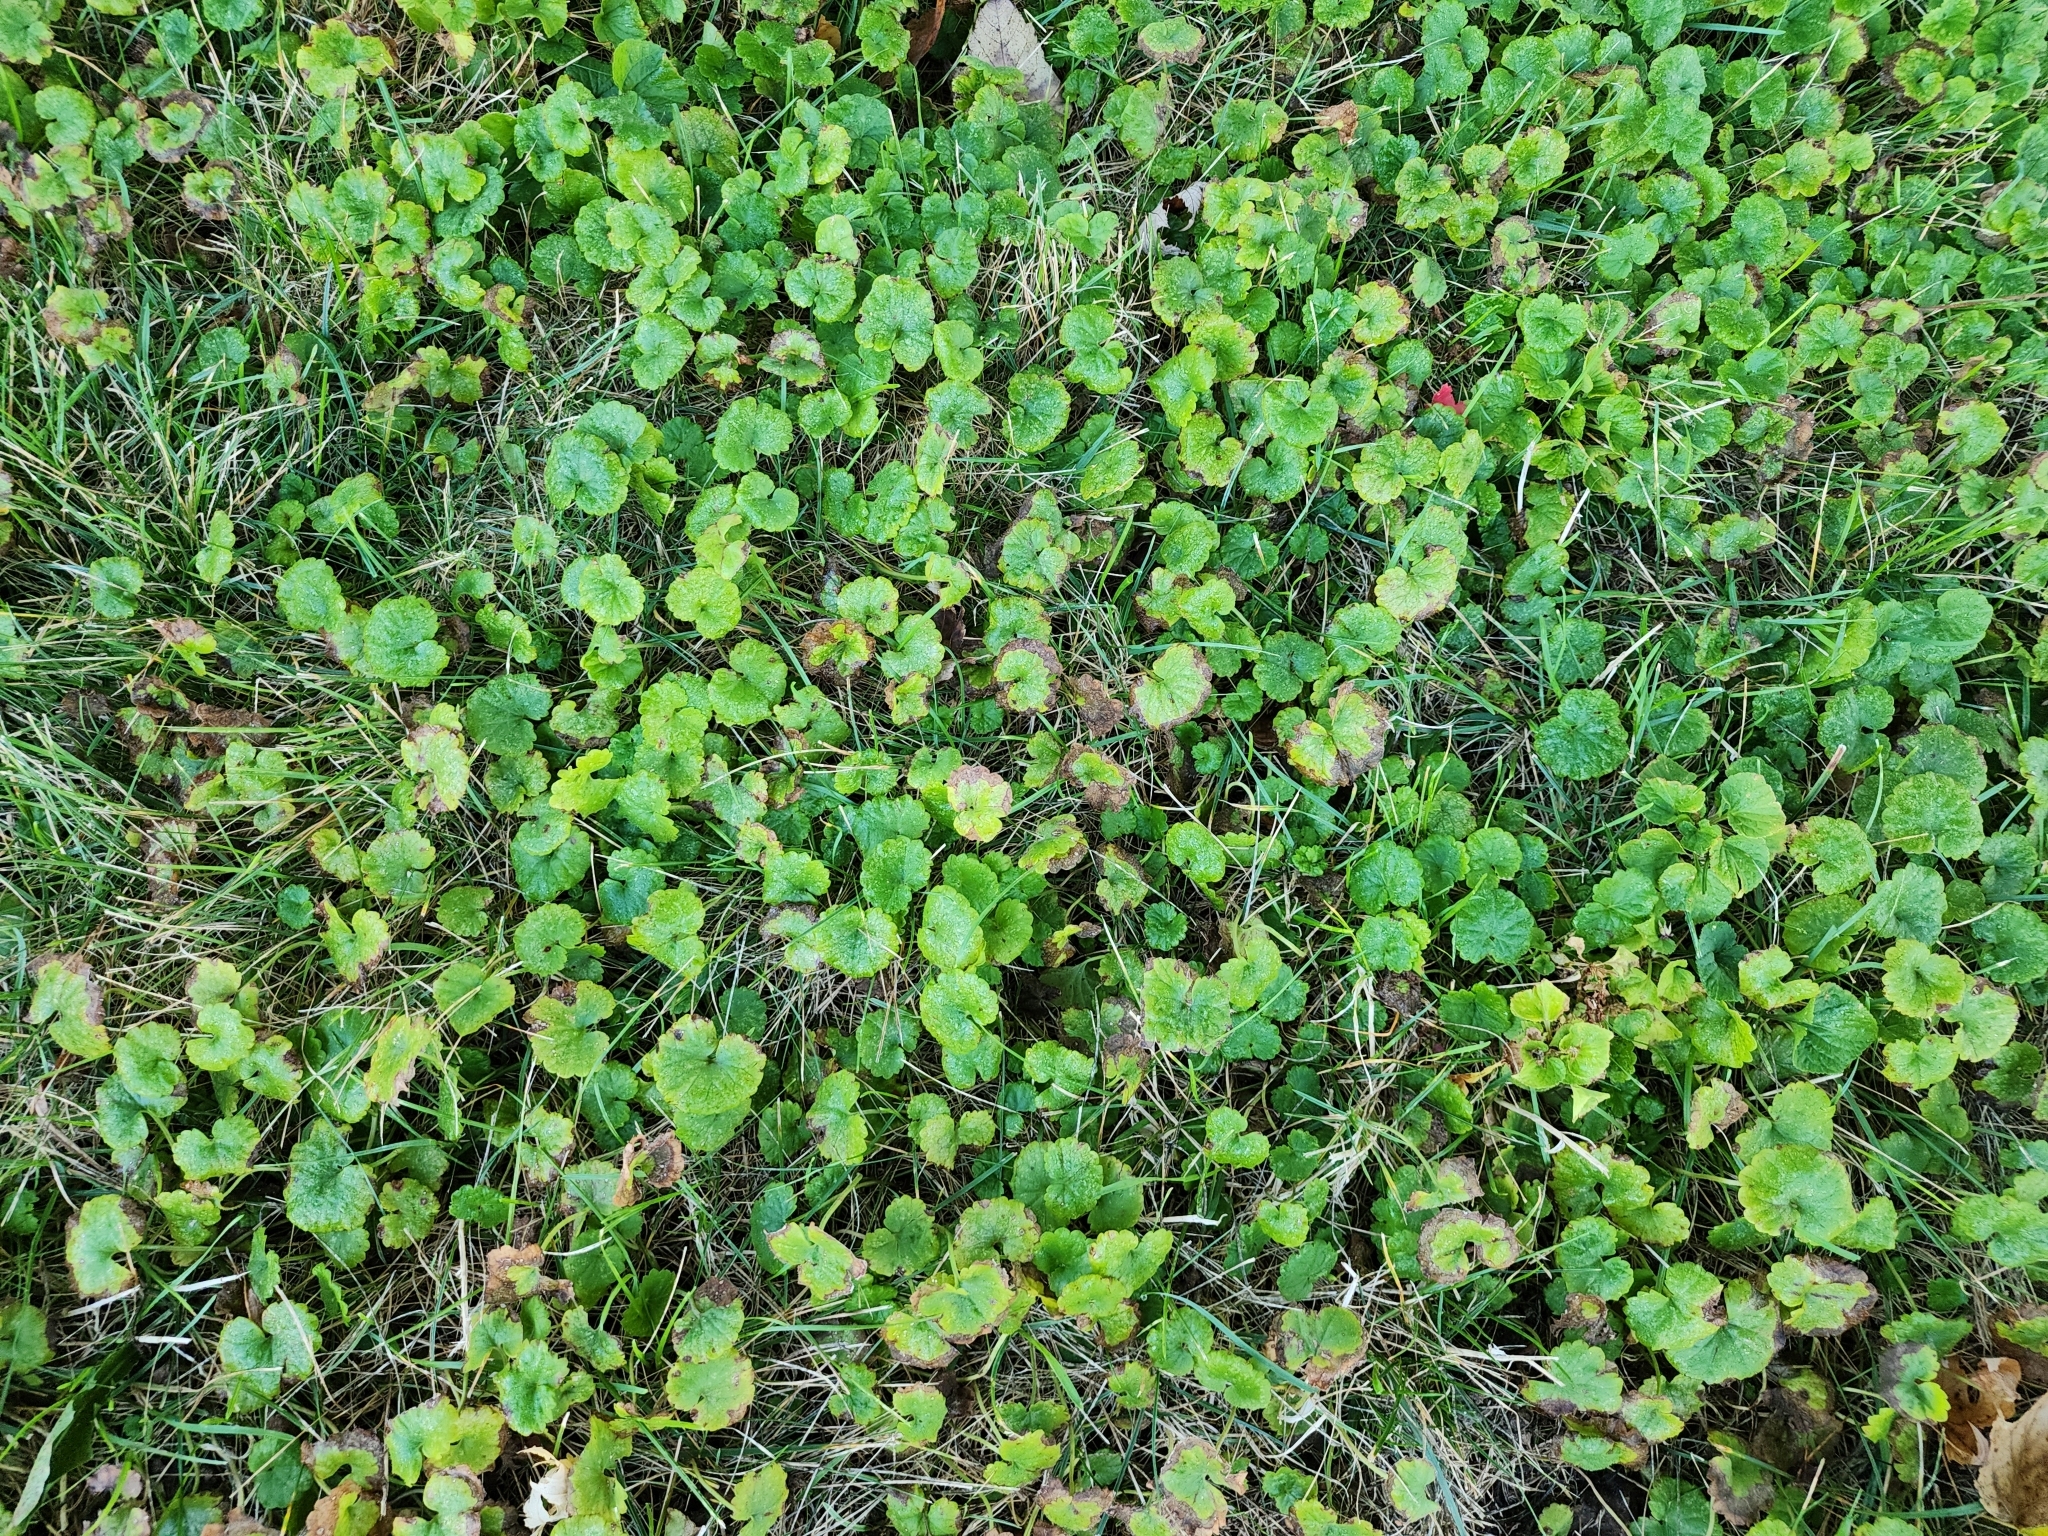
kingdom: Plantae
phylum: Tracheophyta
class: Magnoliopsida
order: Lamiales
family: Lamiaceae
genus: Glechoma
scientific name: Glechoma hederacea
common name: Ground ivy
